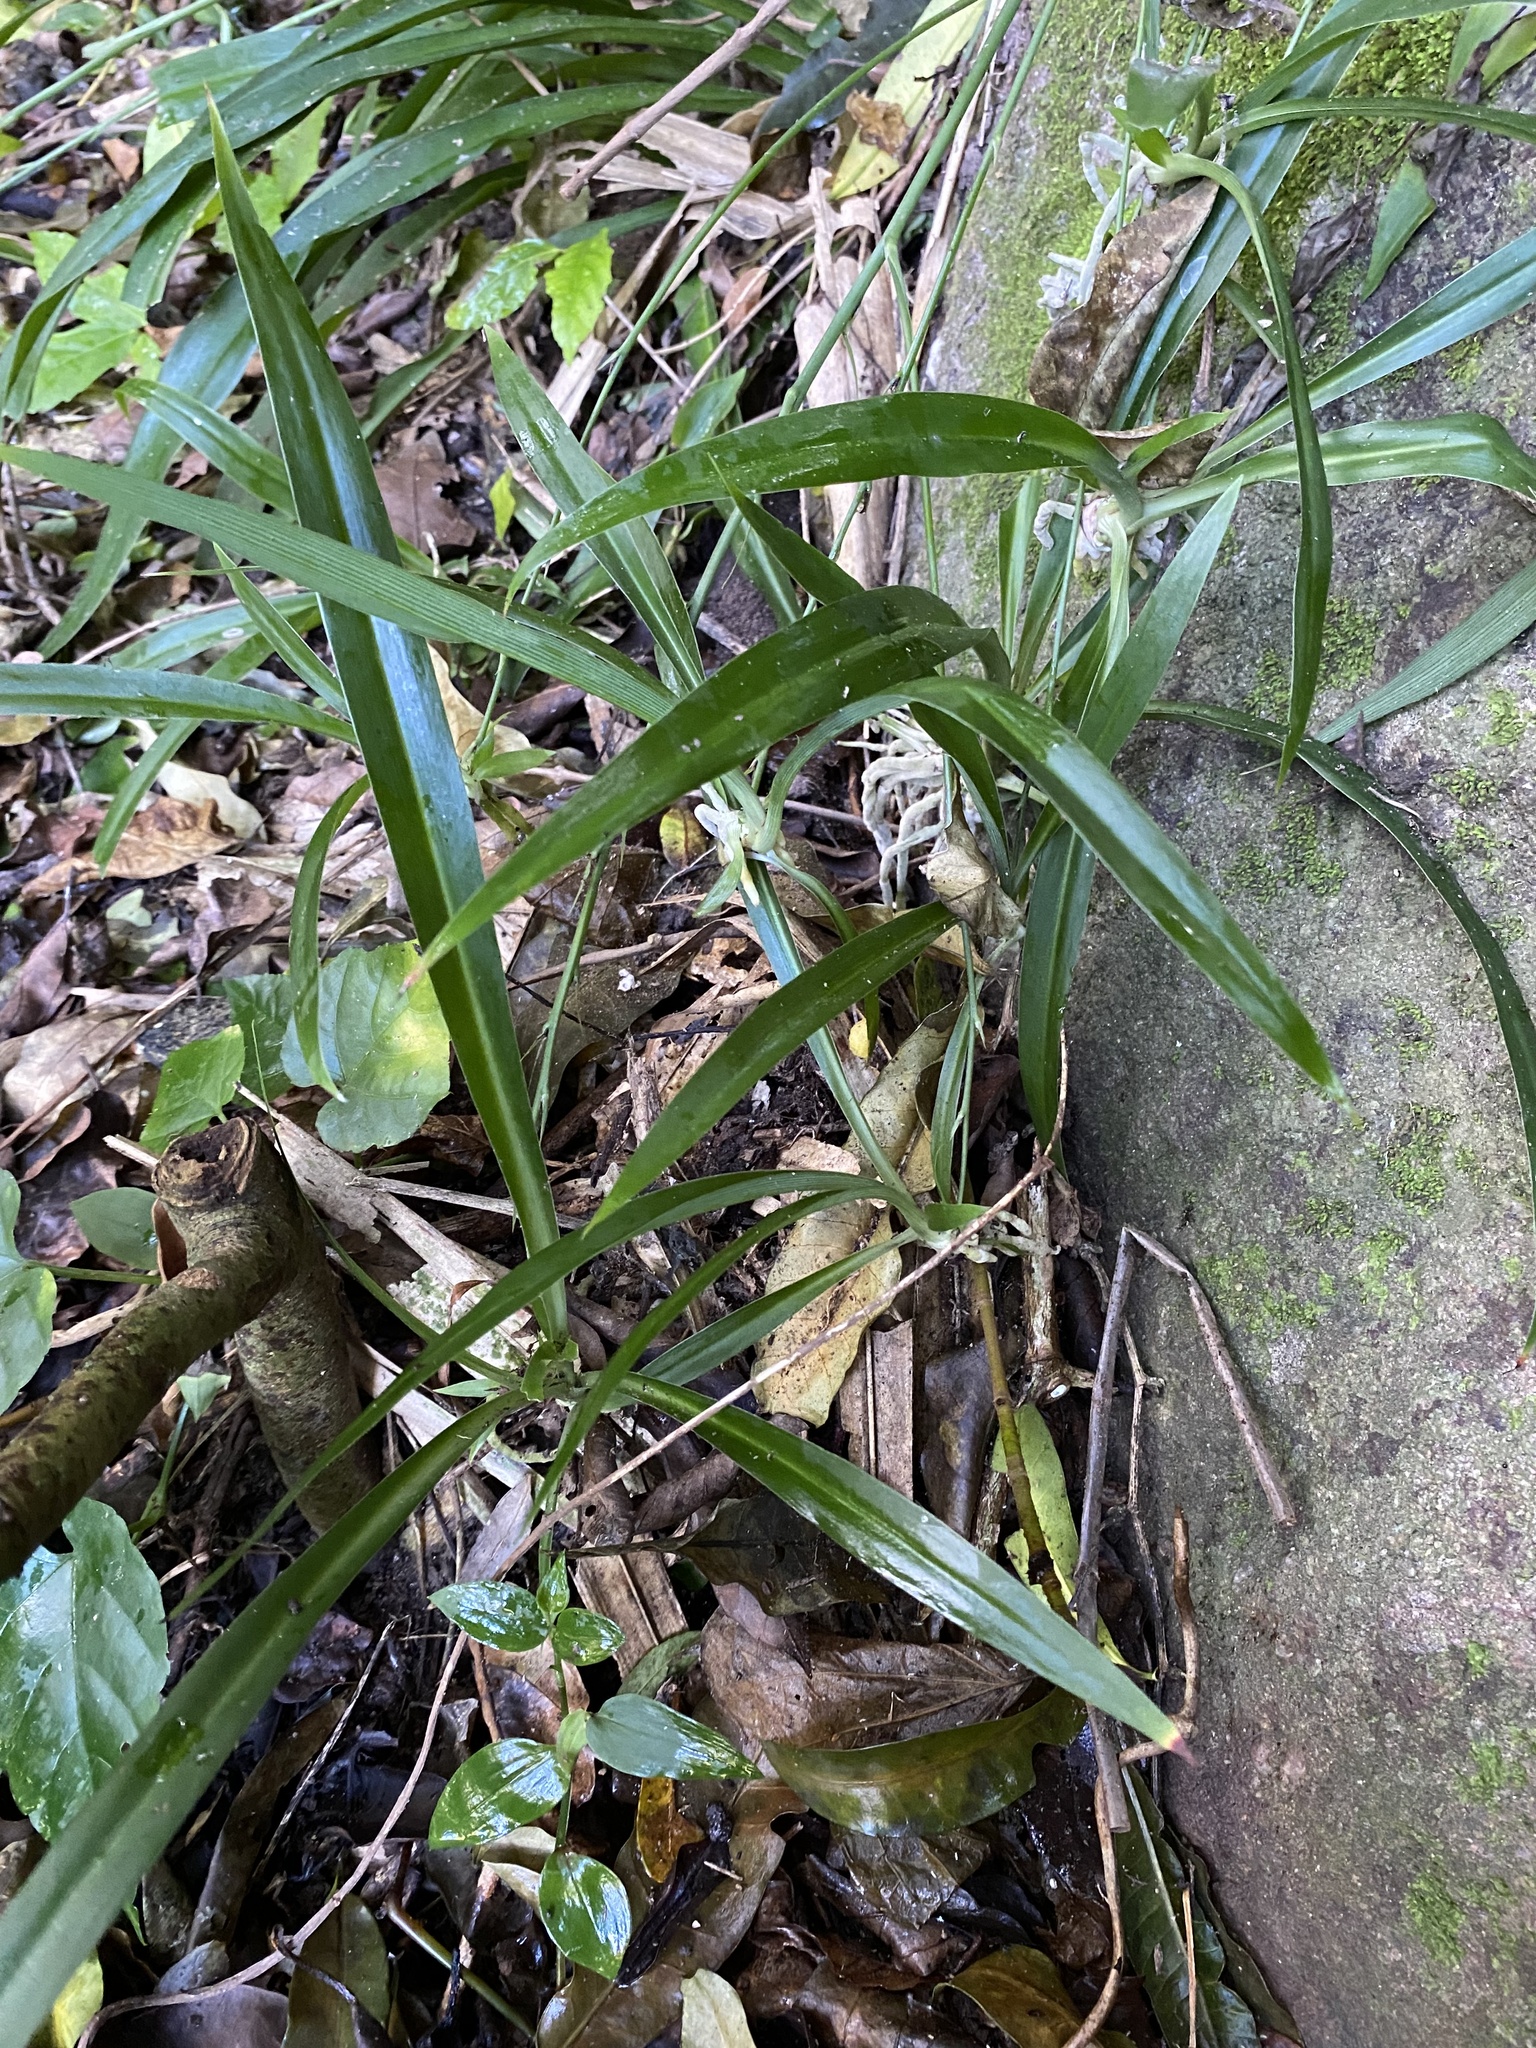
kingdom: Plantae
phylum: Tracheophyta
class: Liliopsida
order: Asparagales
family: Asparagaceae
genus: Chlorophytum
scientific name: Chlorophytum comosum
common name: Spider plant
